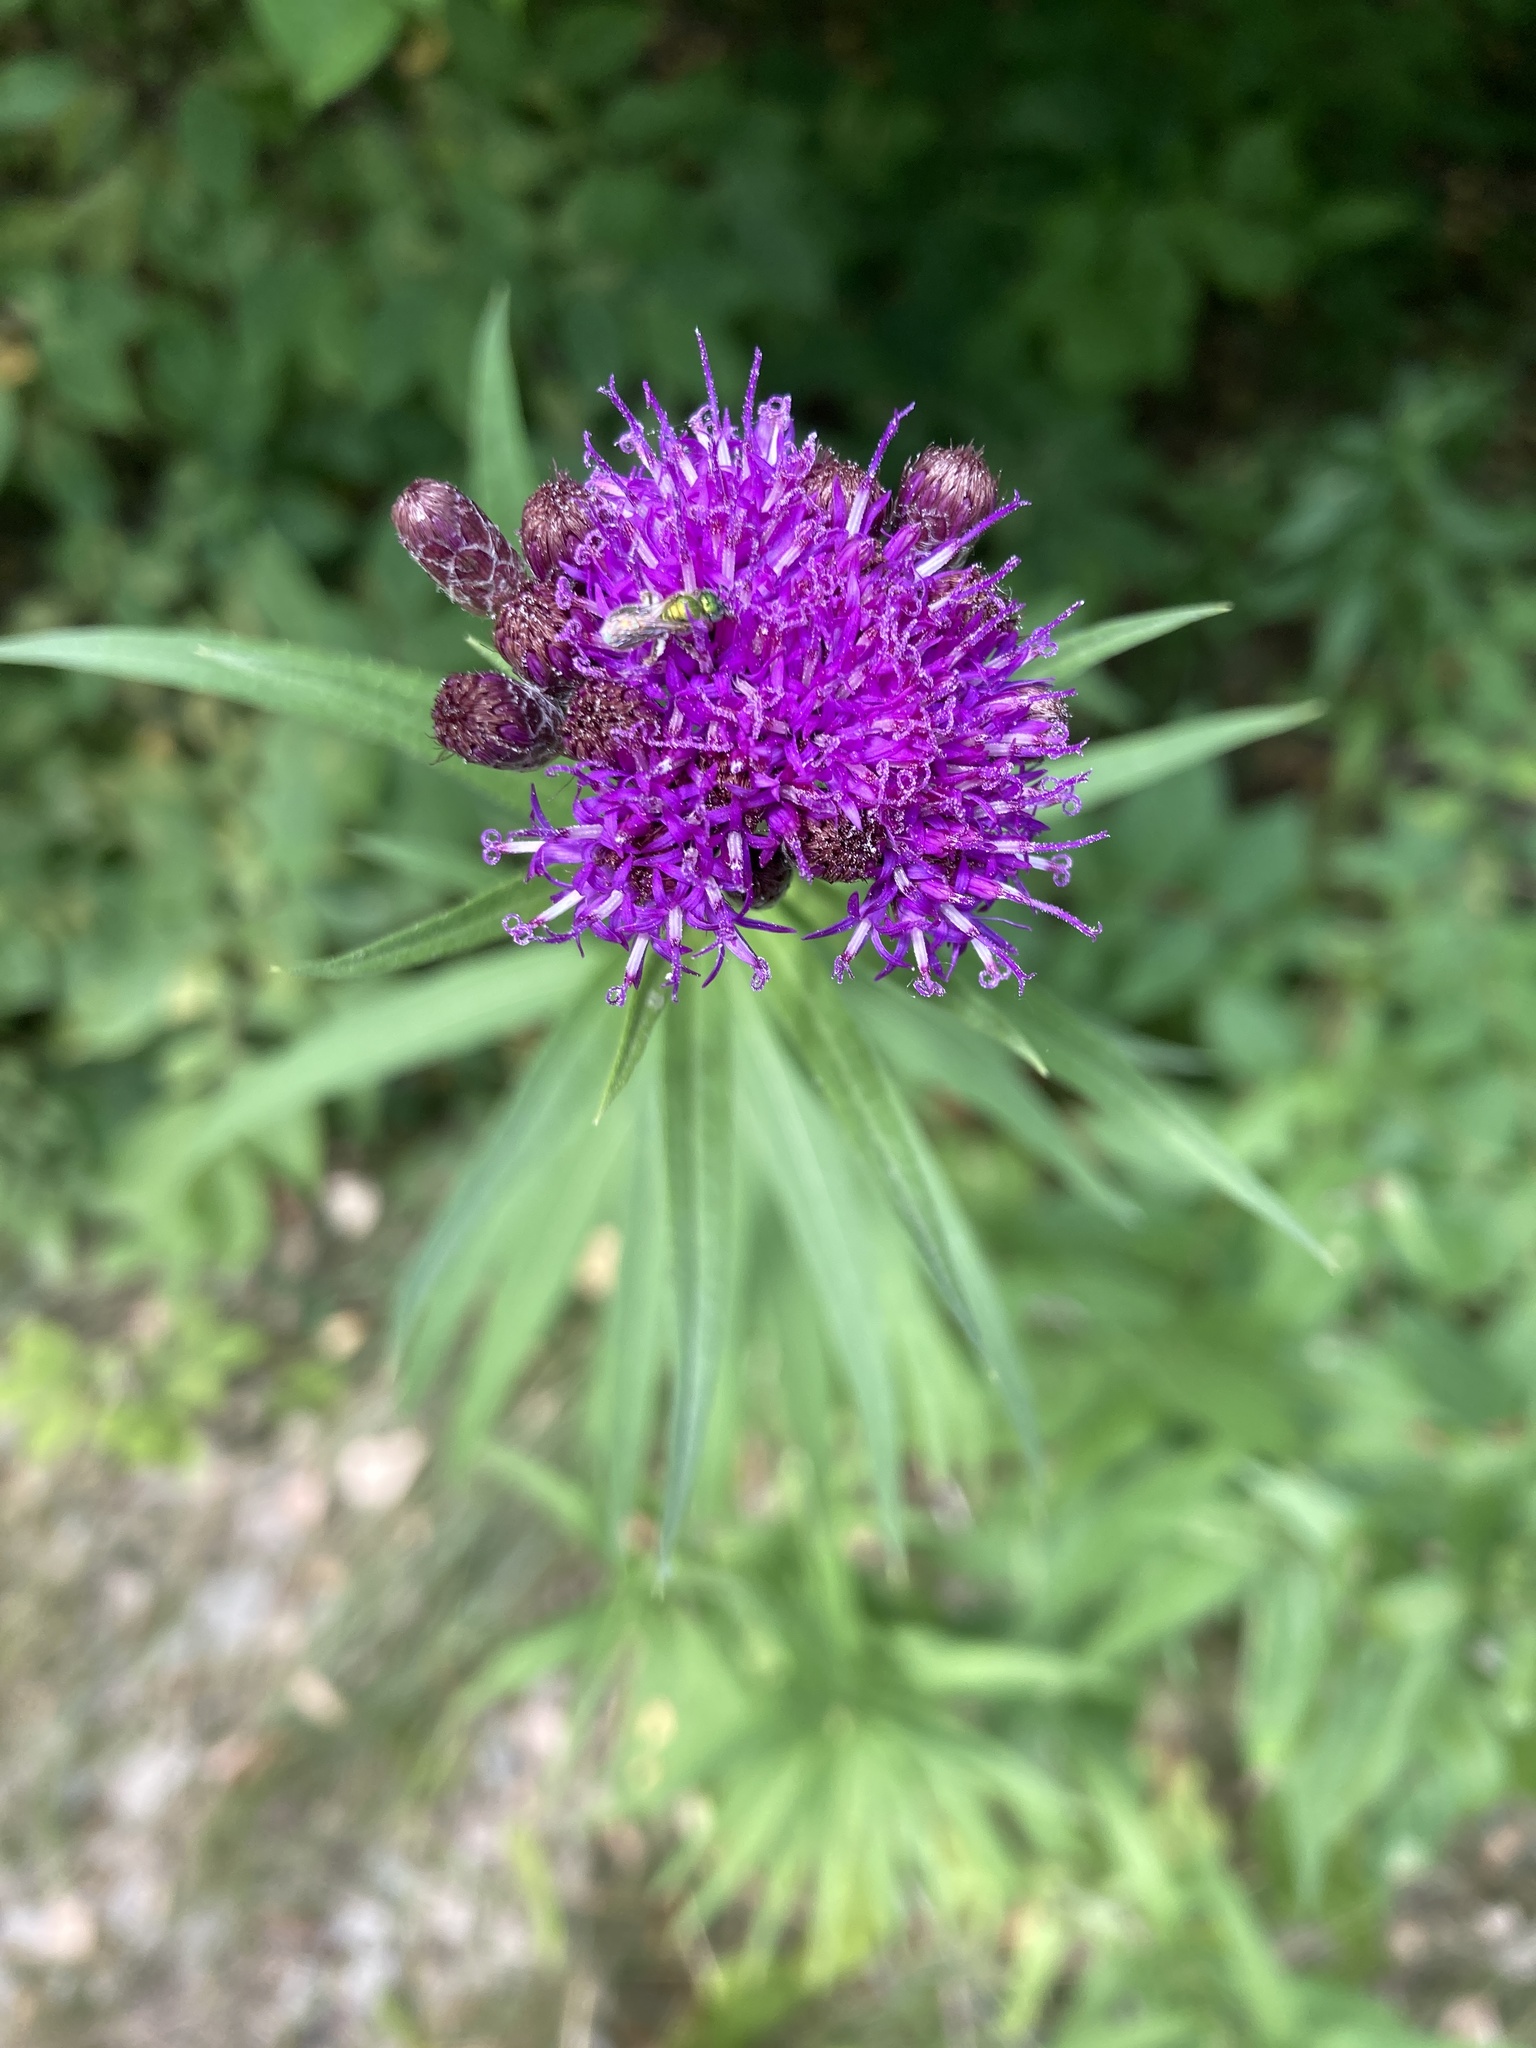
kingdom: Plantae
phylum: Tracheophyta
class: Magnoliopsida
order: Asterales
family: Asteraceae
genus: Vernonia
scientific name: Vernonia fasciculata
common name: Fascicled ironweed
